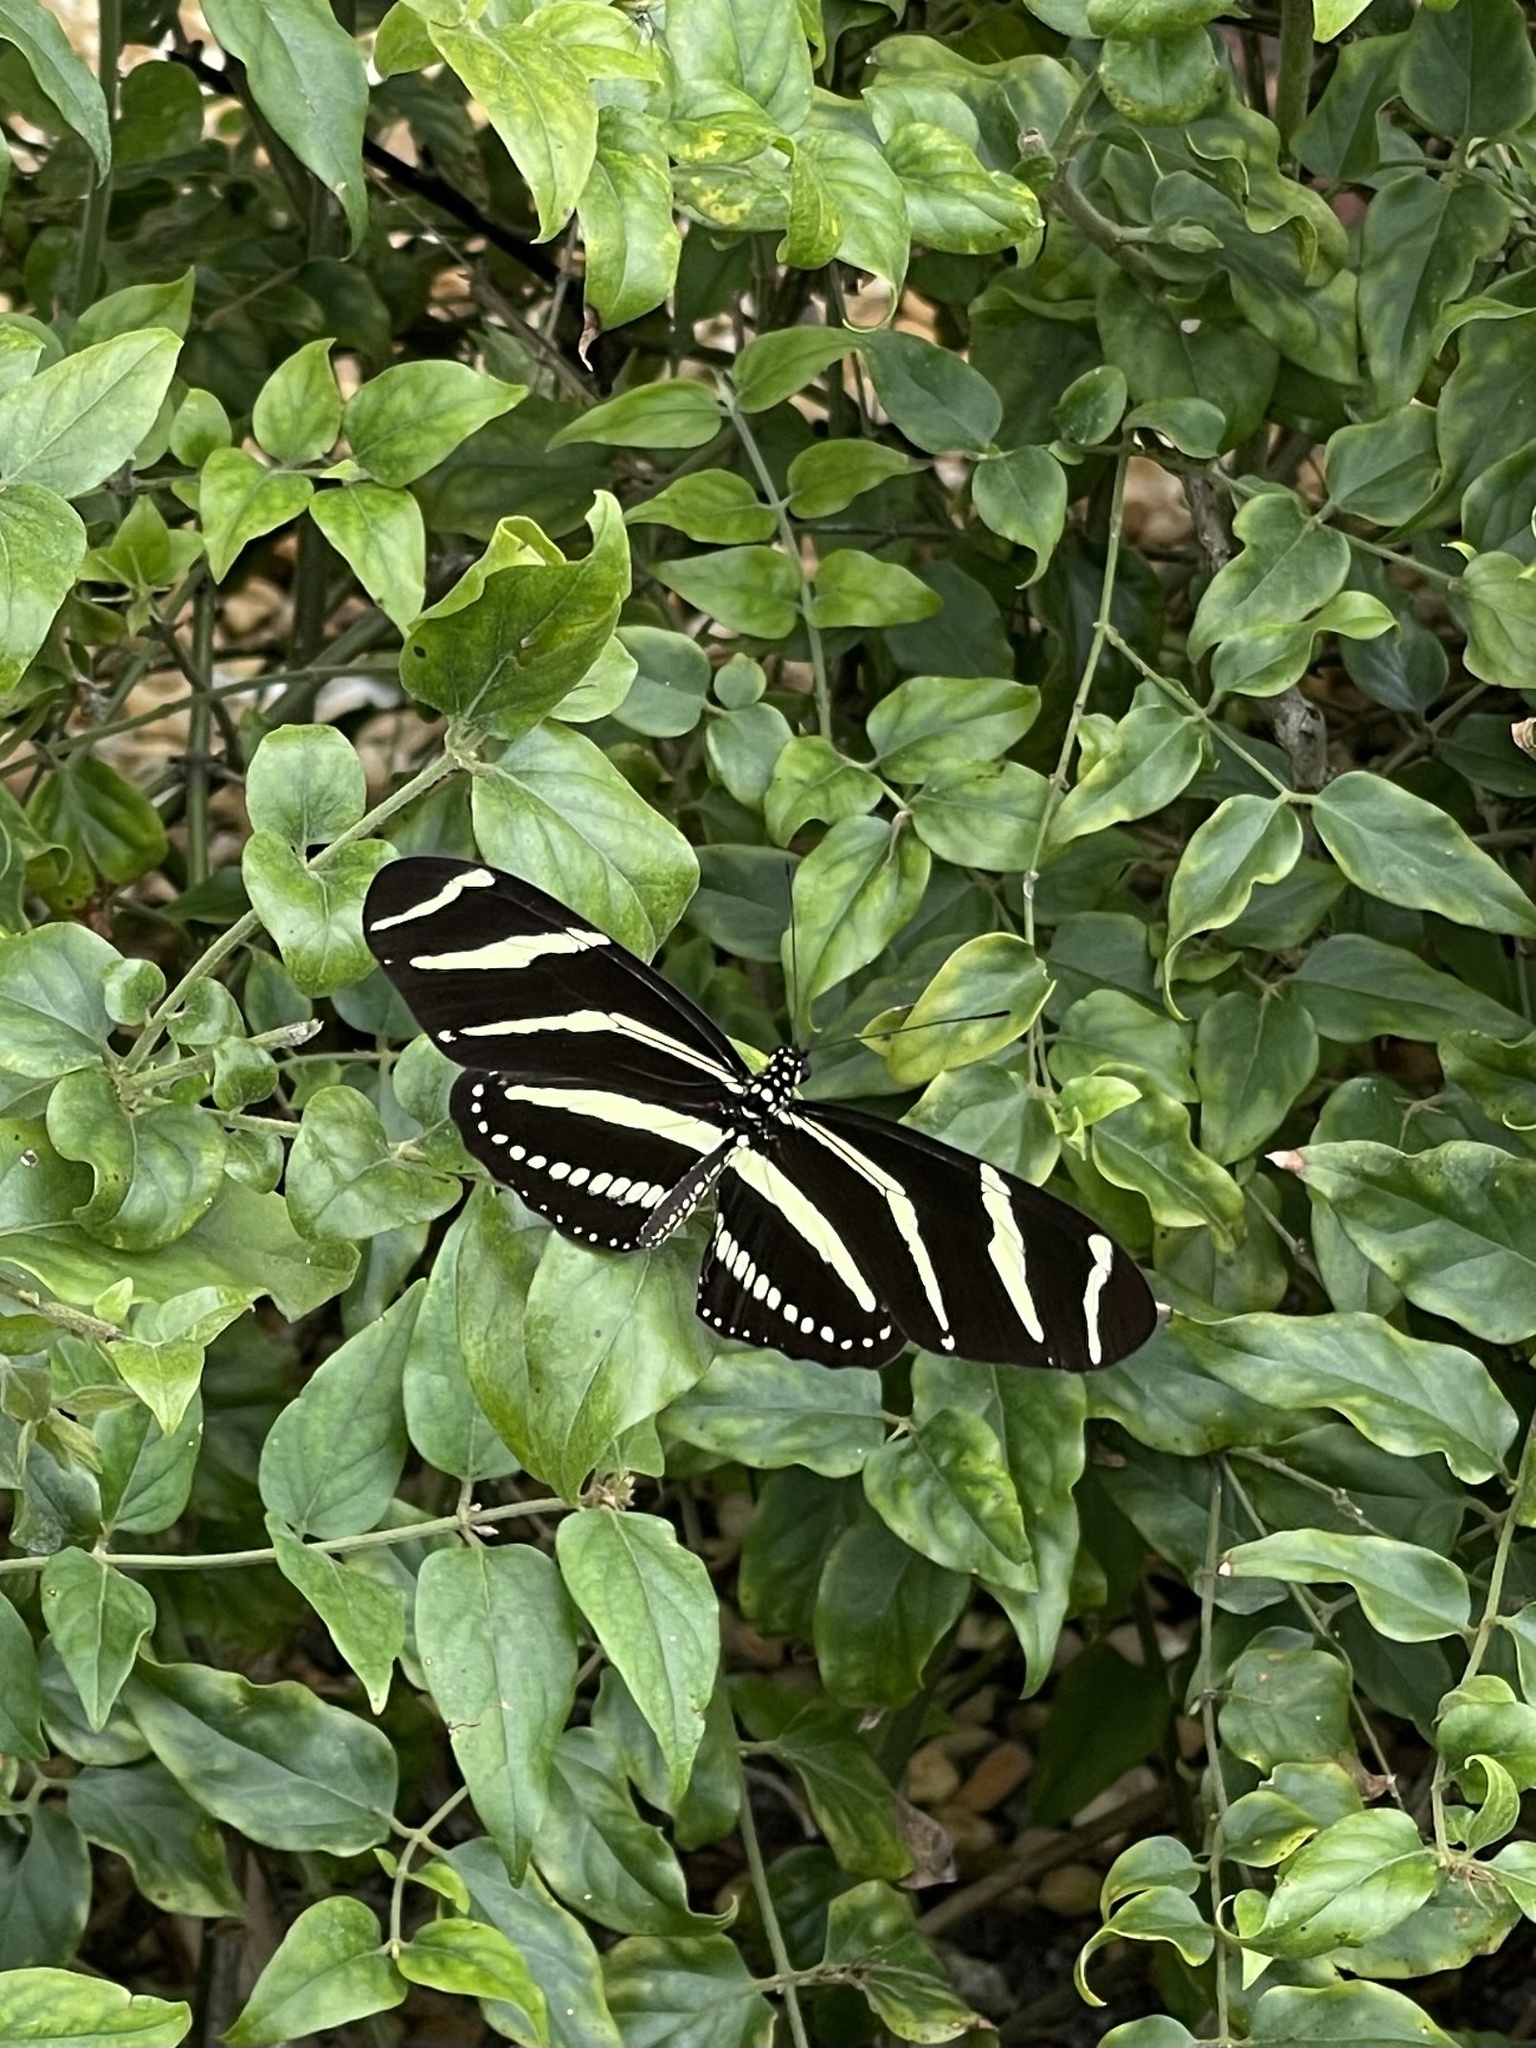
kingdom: Animalia
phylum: Arthropoda
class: Insecta
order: Lepidoptera
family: Nymphalidae
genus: Heliconius
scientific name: Heliconius charithonia
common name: Zebra long wing
